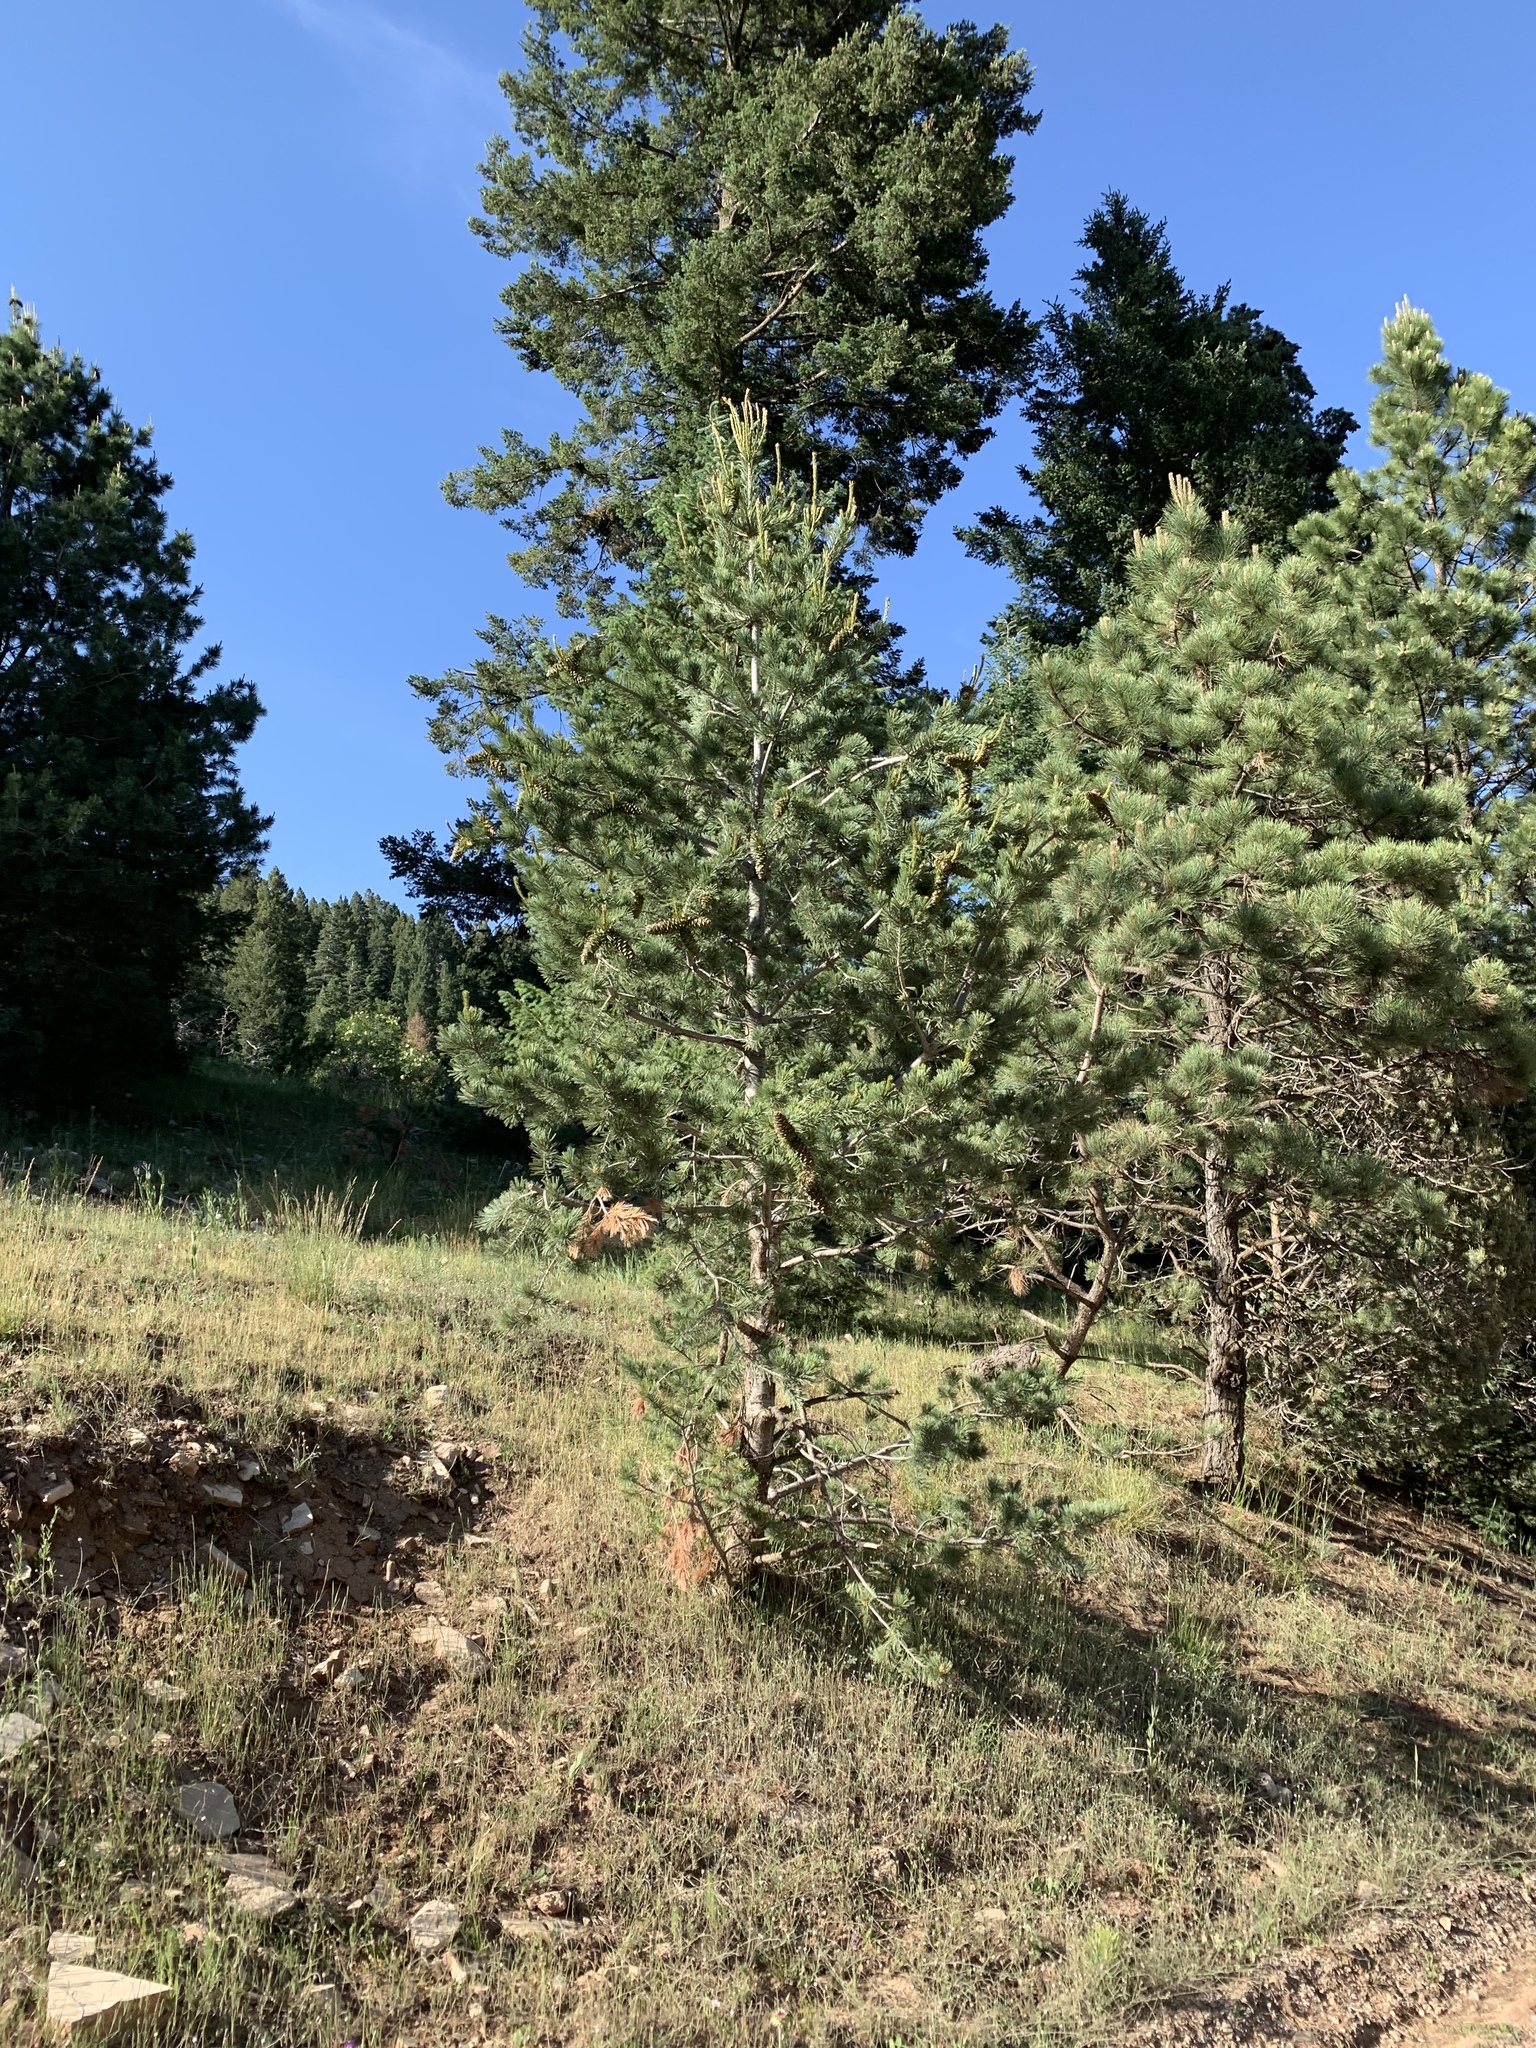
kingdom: Plantae
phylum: Tracheophyta
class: Pinopsida
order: Pinales
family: Pinaceae
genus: Pinus
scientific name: Pinus strobiformis
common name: Southwestern white pine
